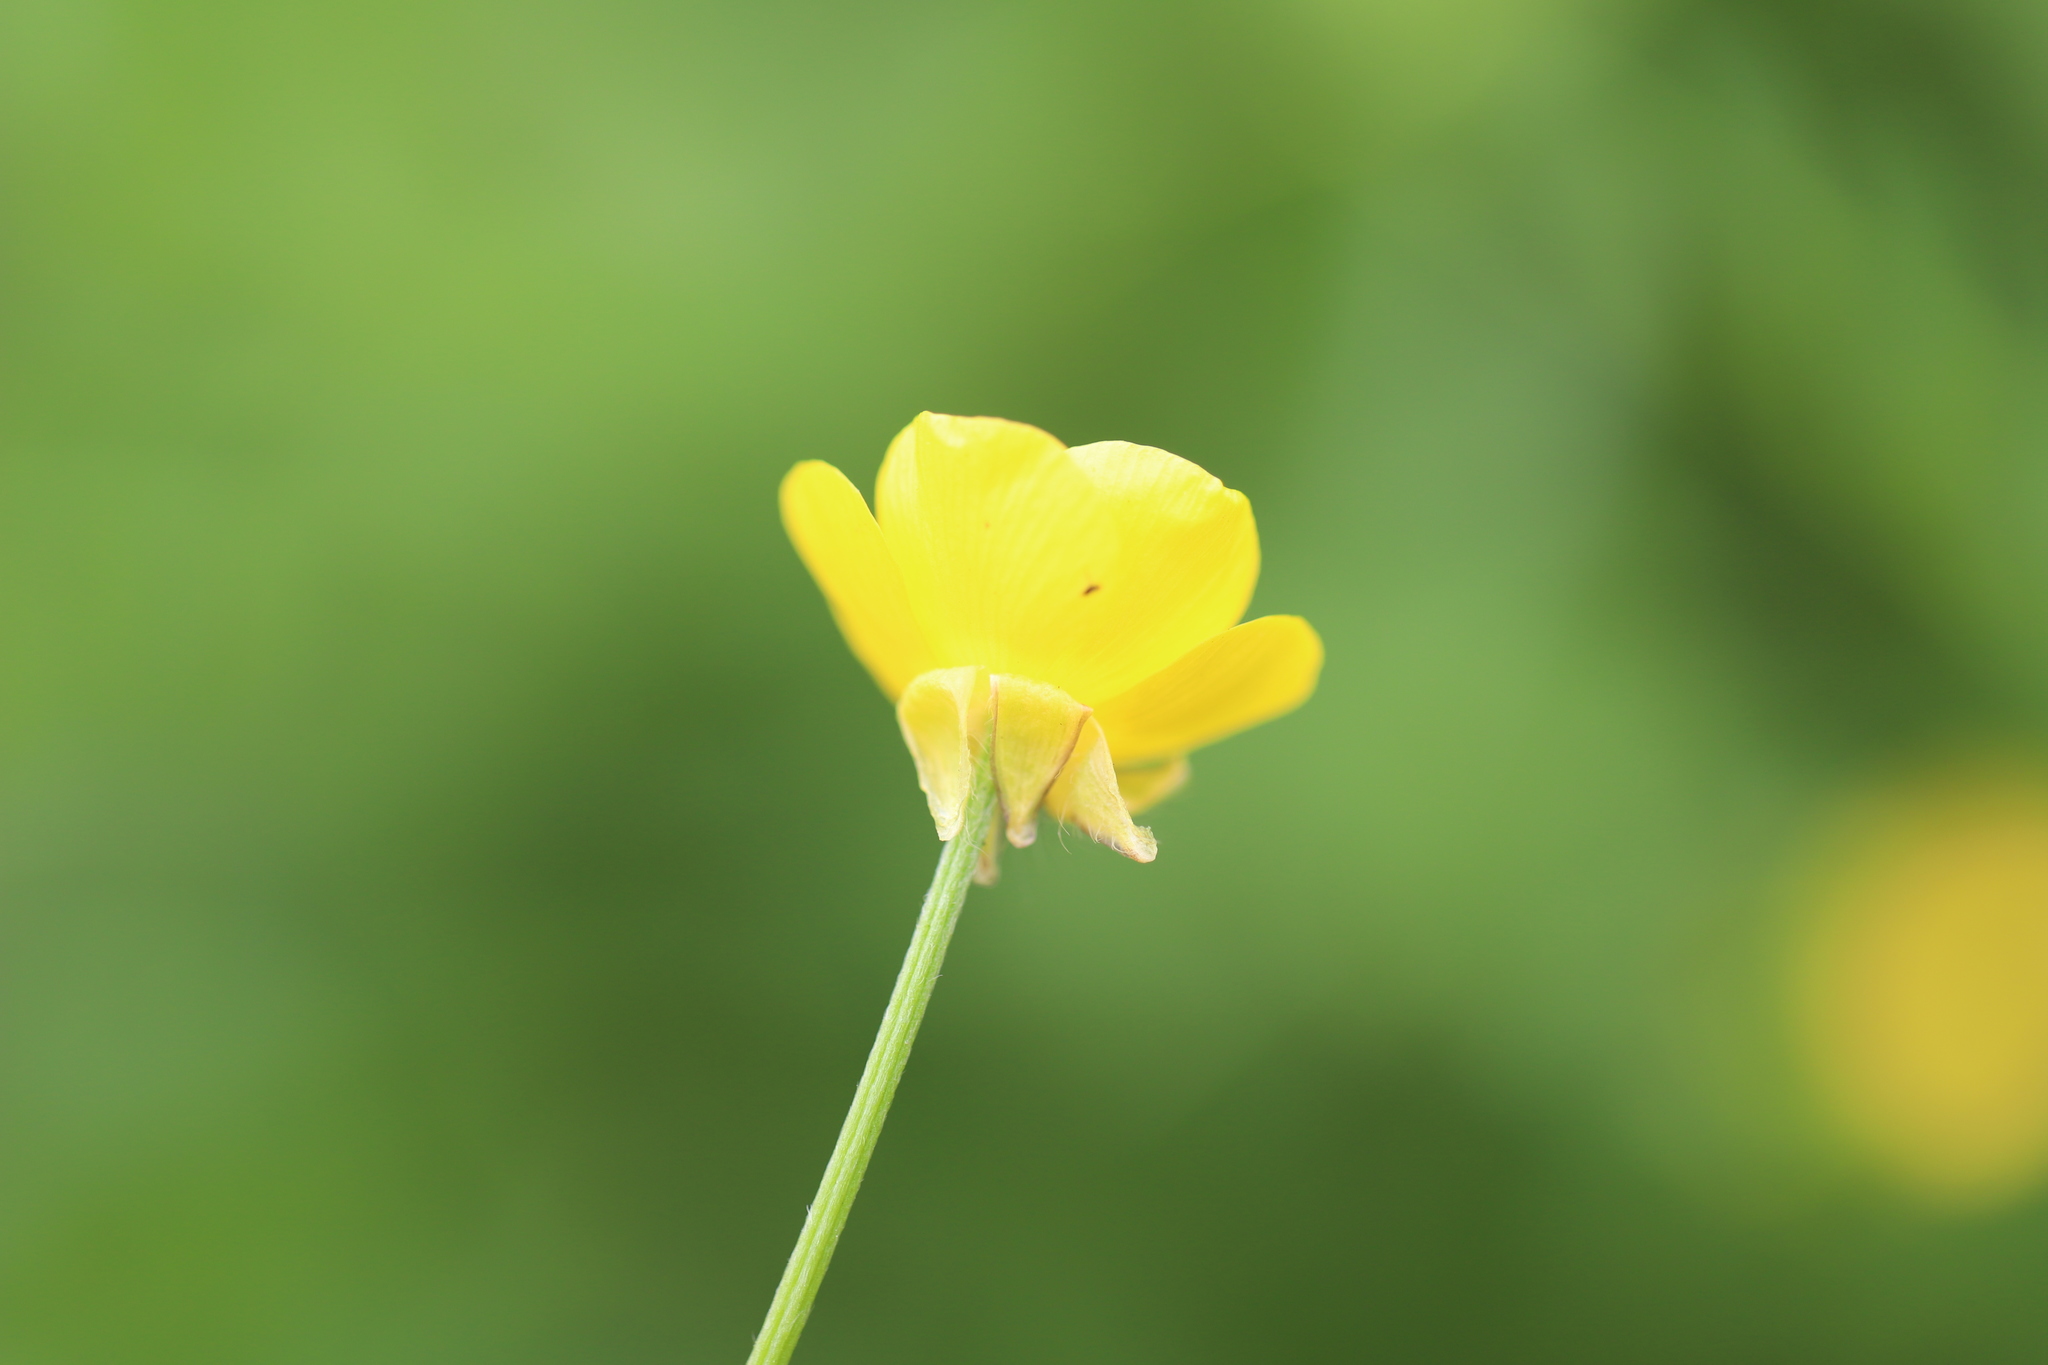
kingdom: Plantae
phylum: Tracheophyta
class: Magnoliopsida
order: Ranunculales
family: Ranunculaceae
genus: Ranunculus
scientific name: Ranunculus bulbosus
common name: Bulbous buttercup
